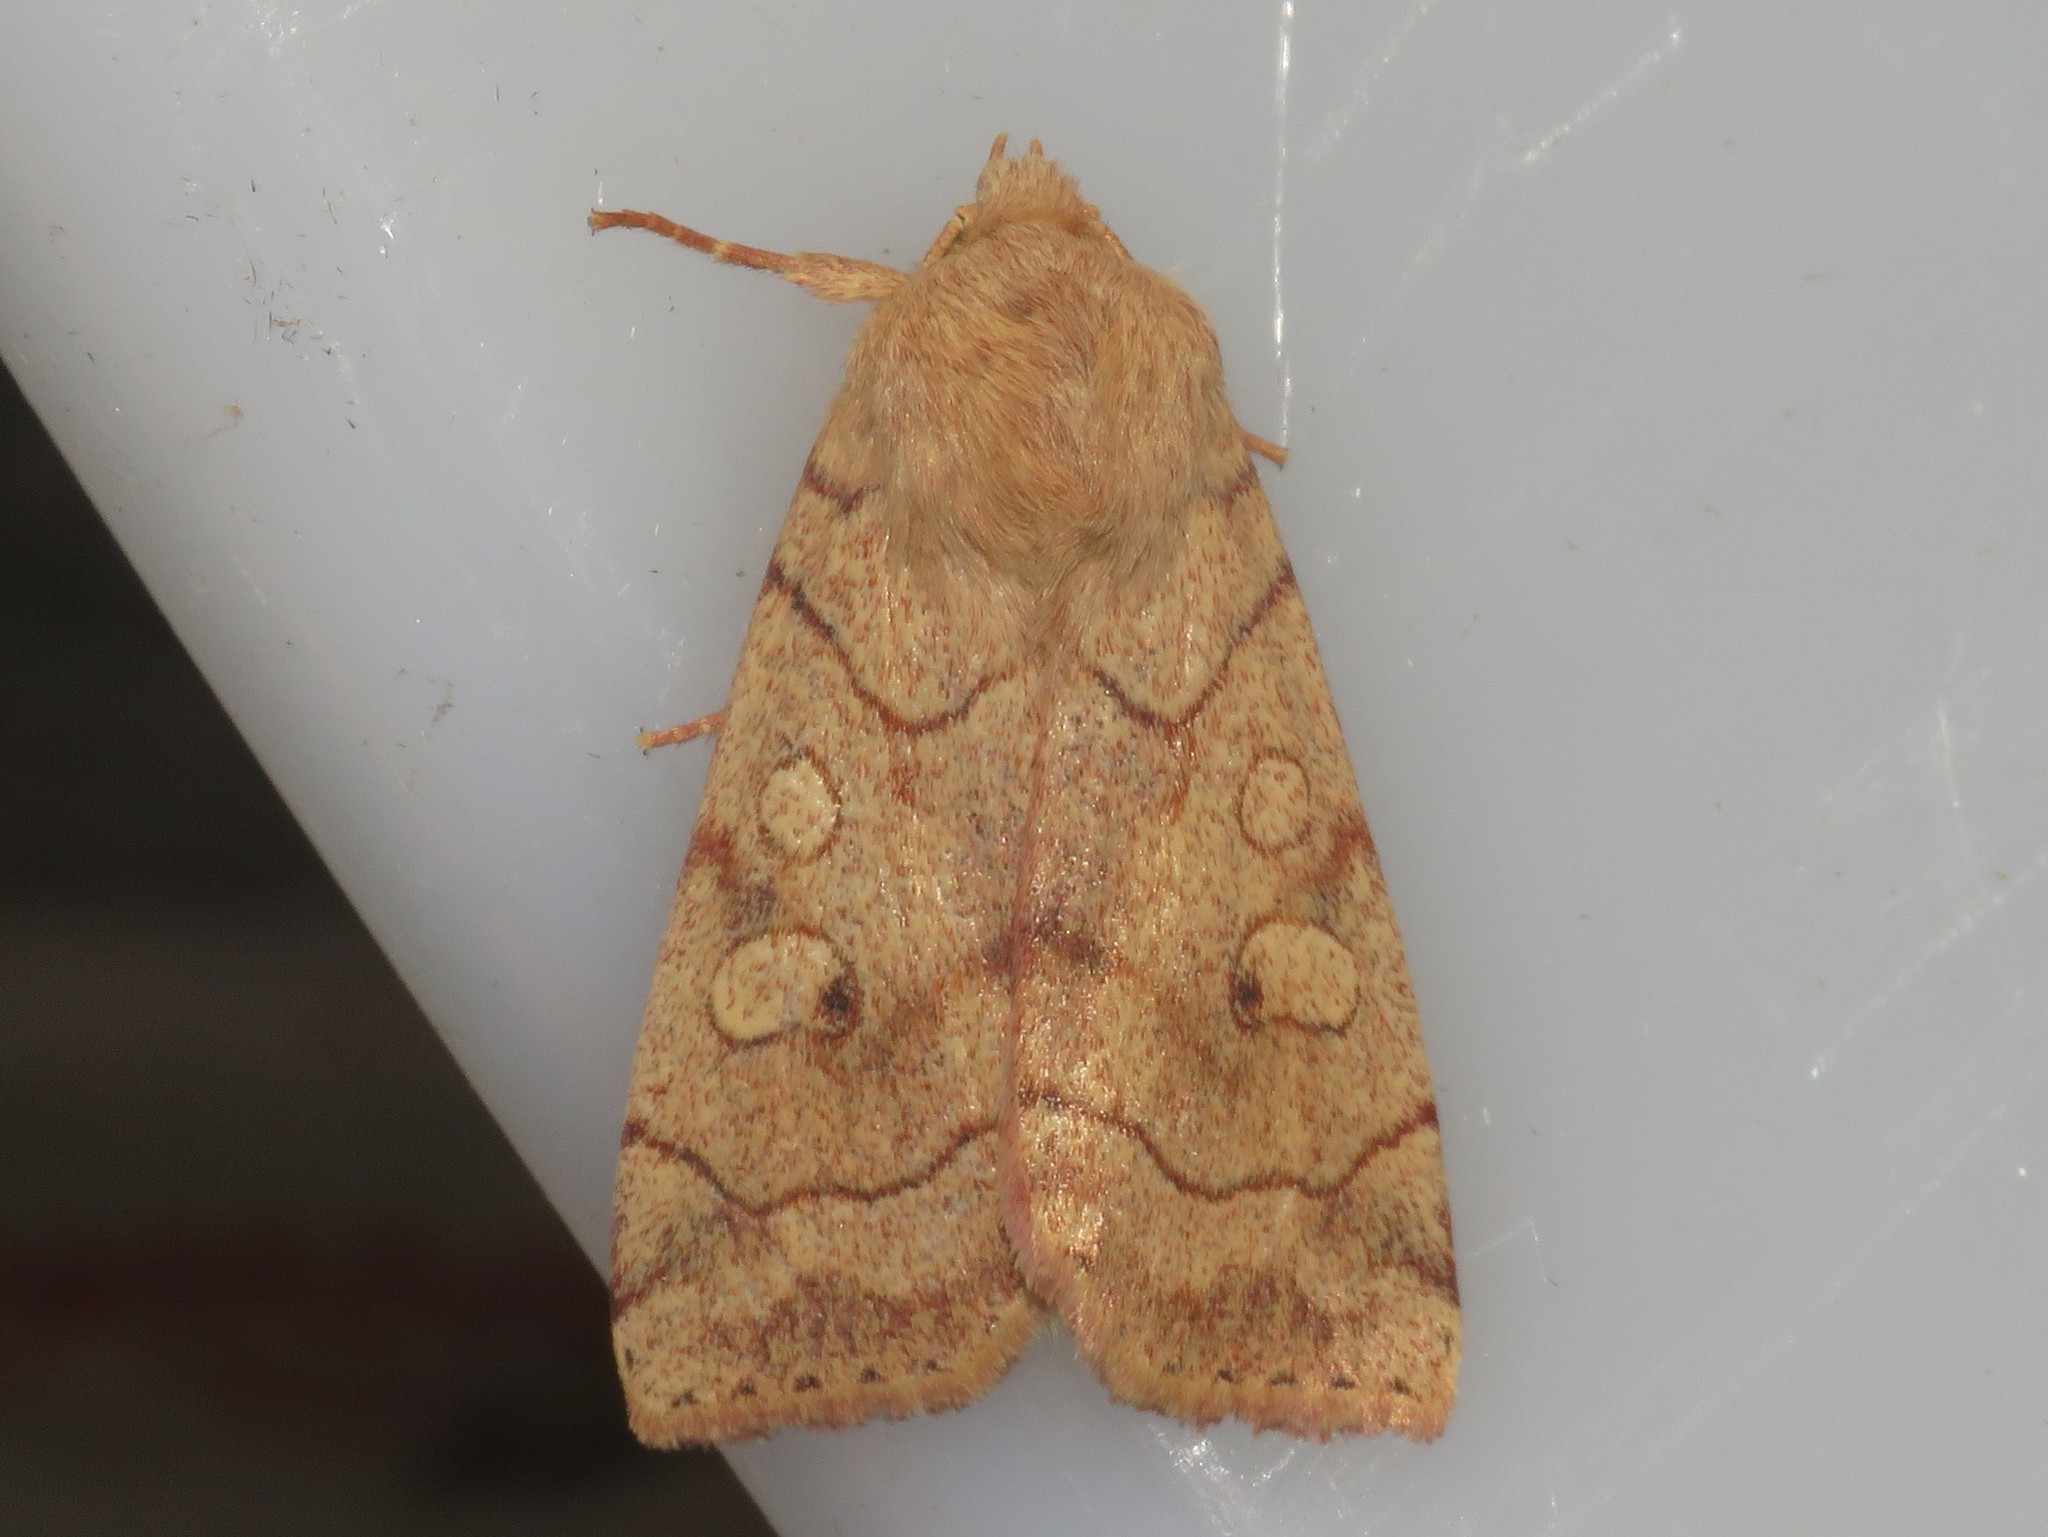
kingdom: Animalia
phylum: Arthropoda
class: Insecta
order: Lepidoptera
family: Noctuidae
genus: Enargia
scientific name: Enargia infumata
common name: Smoked sallow
